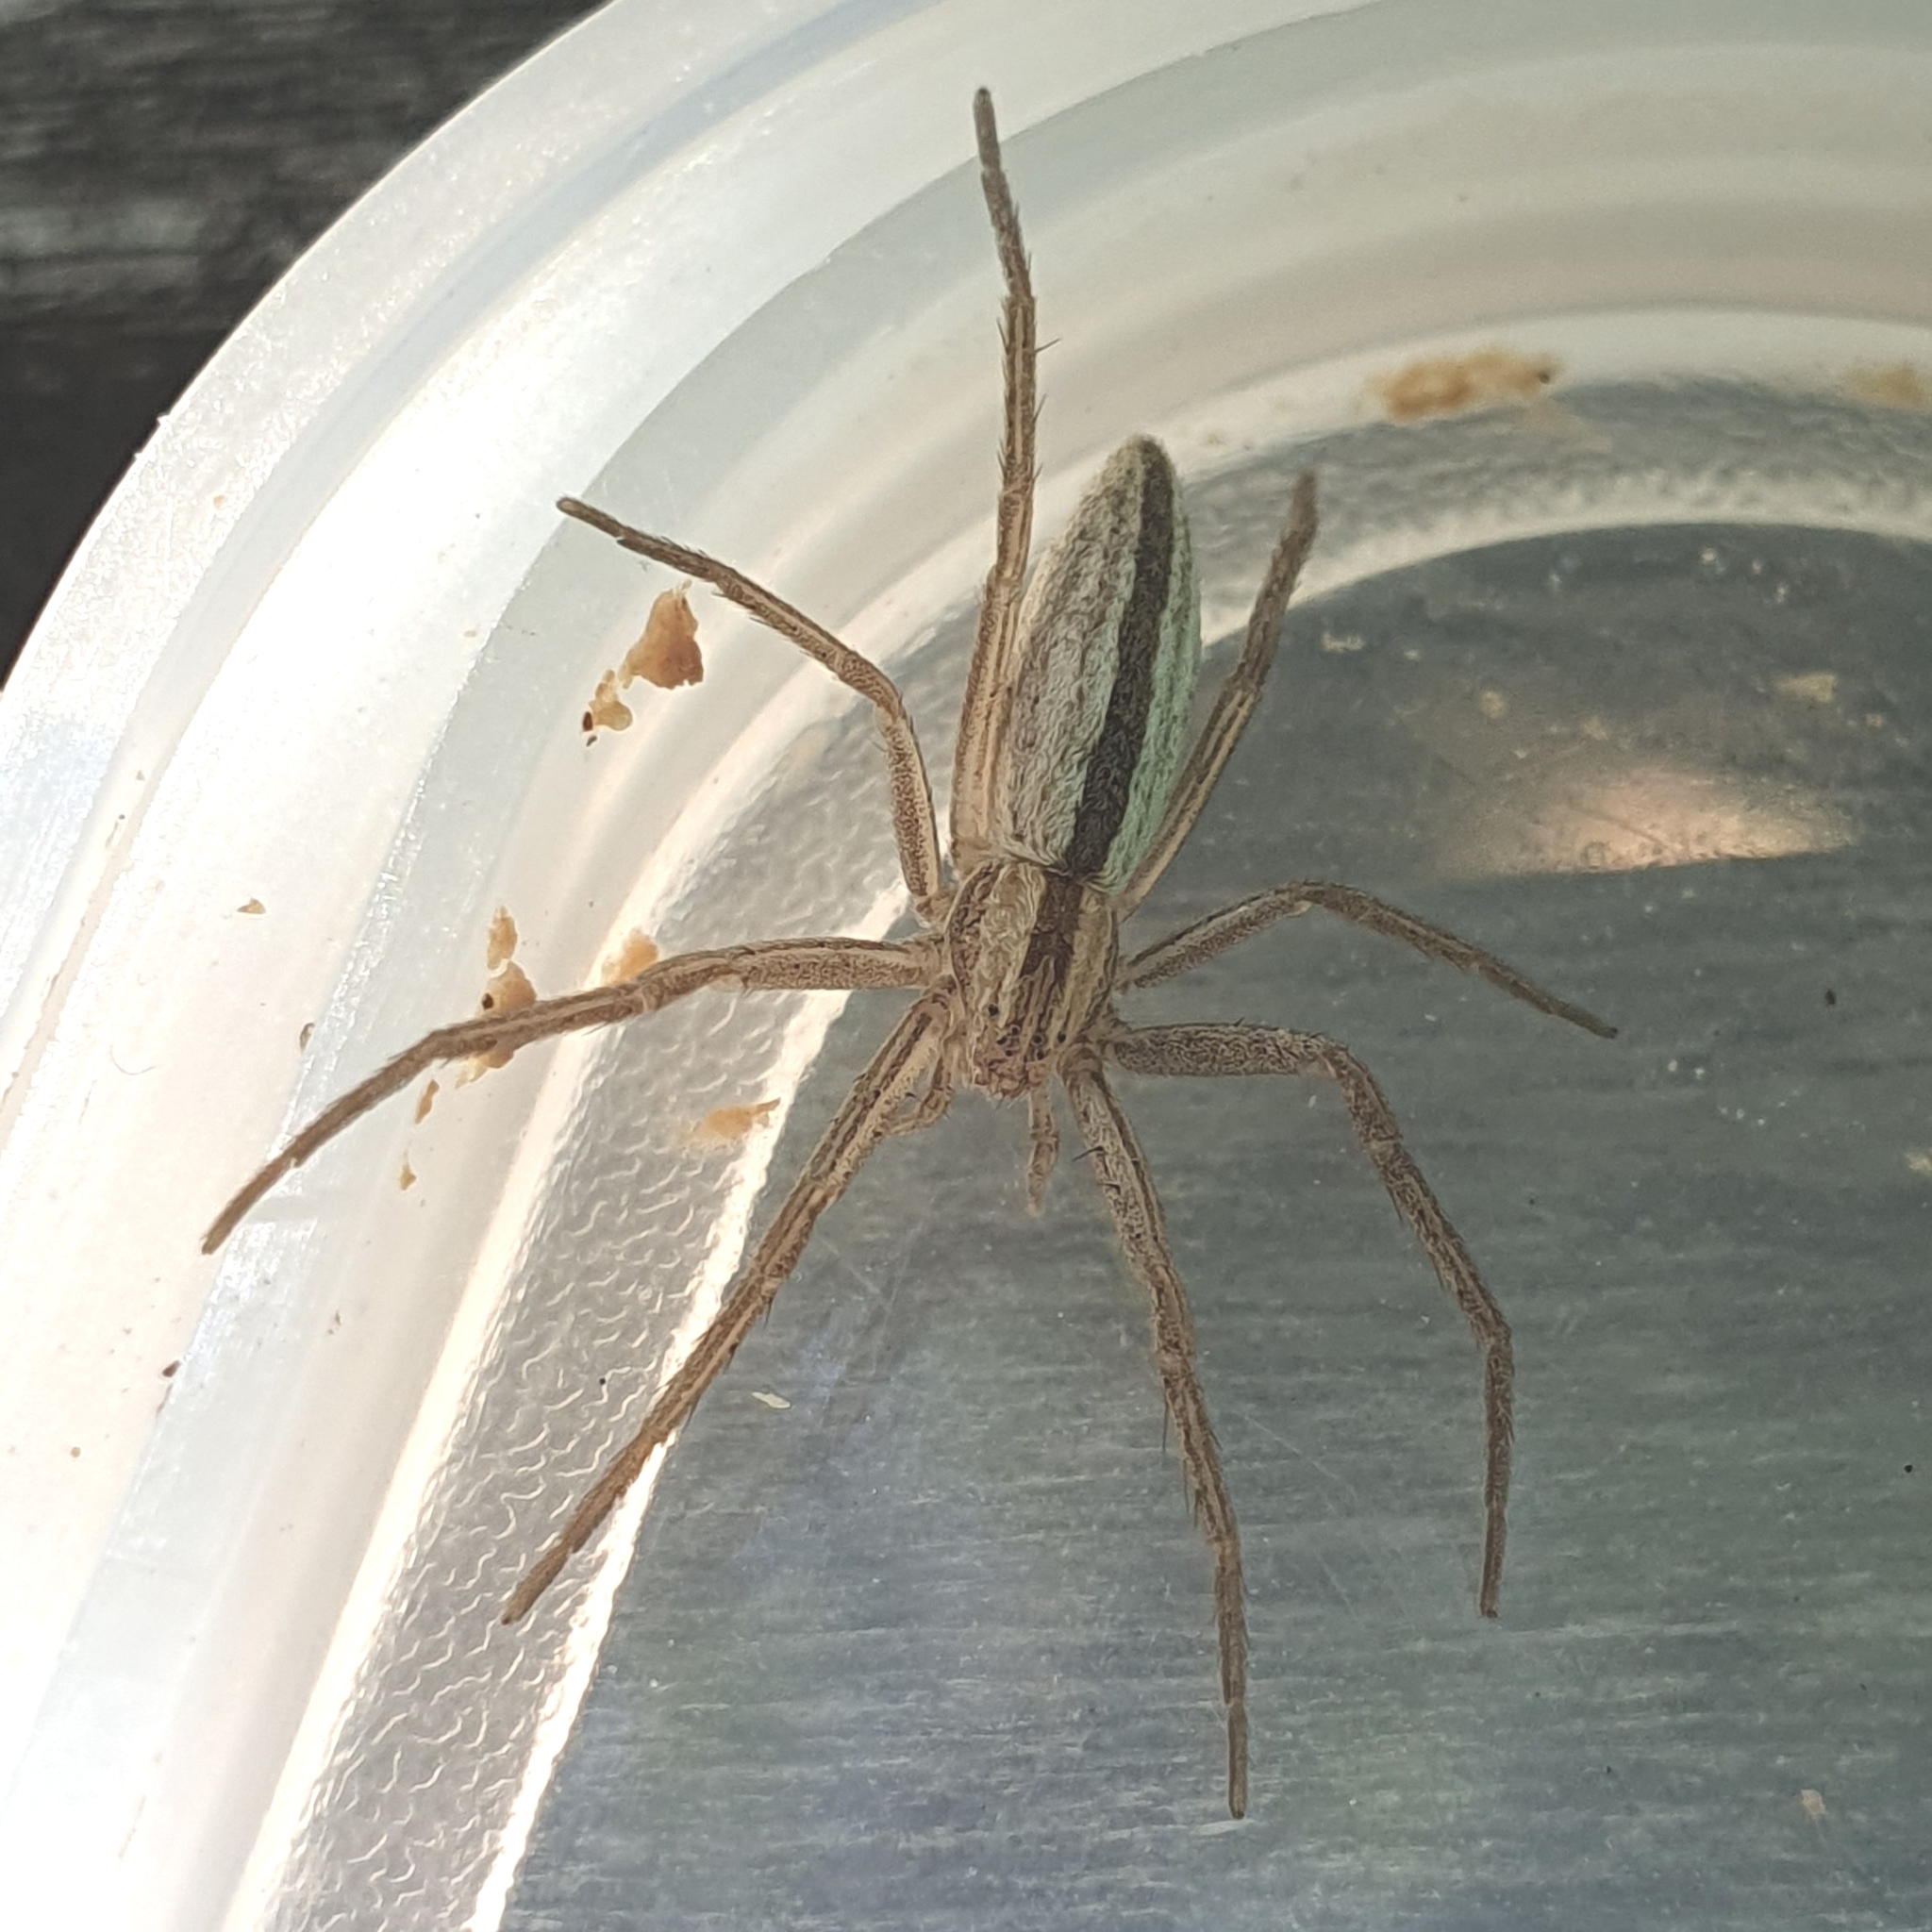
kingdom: Animalia
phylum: Arthropoda
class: Arachnida
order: Araneae
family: Philodromidae
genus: Tibellus
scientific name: Tibellus
